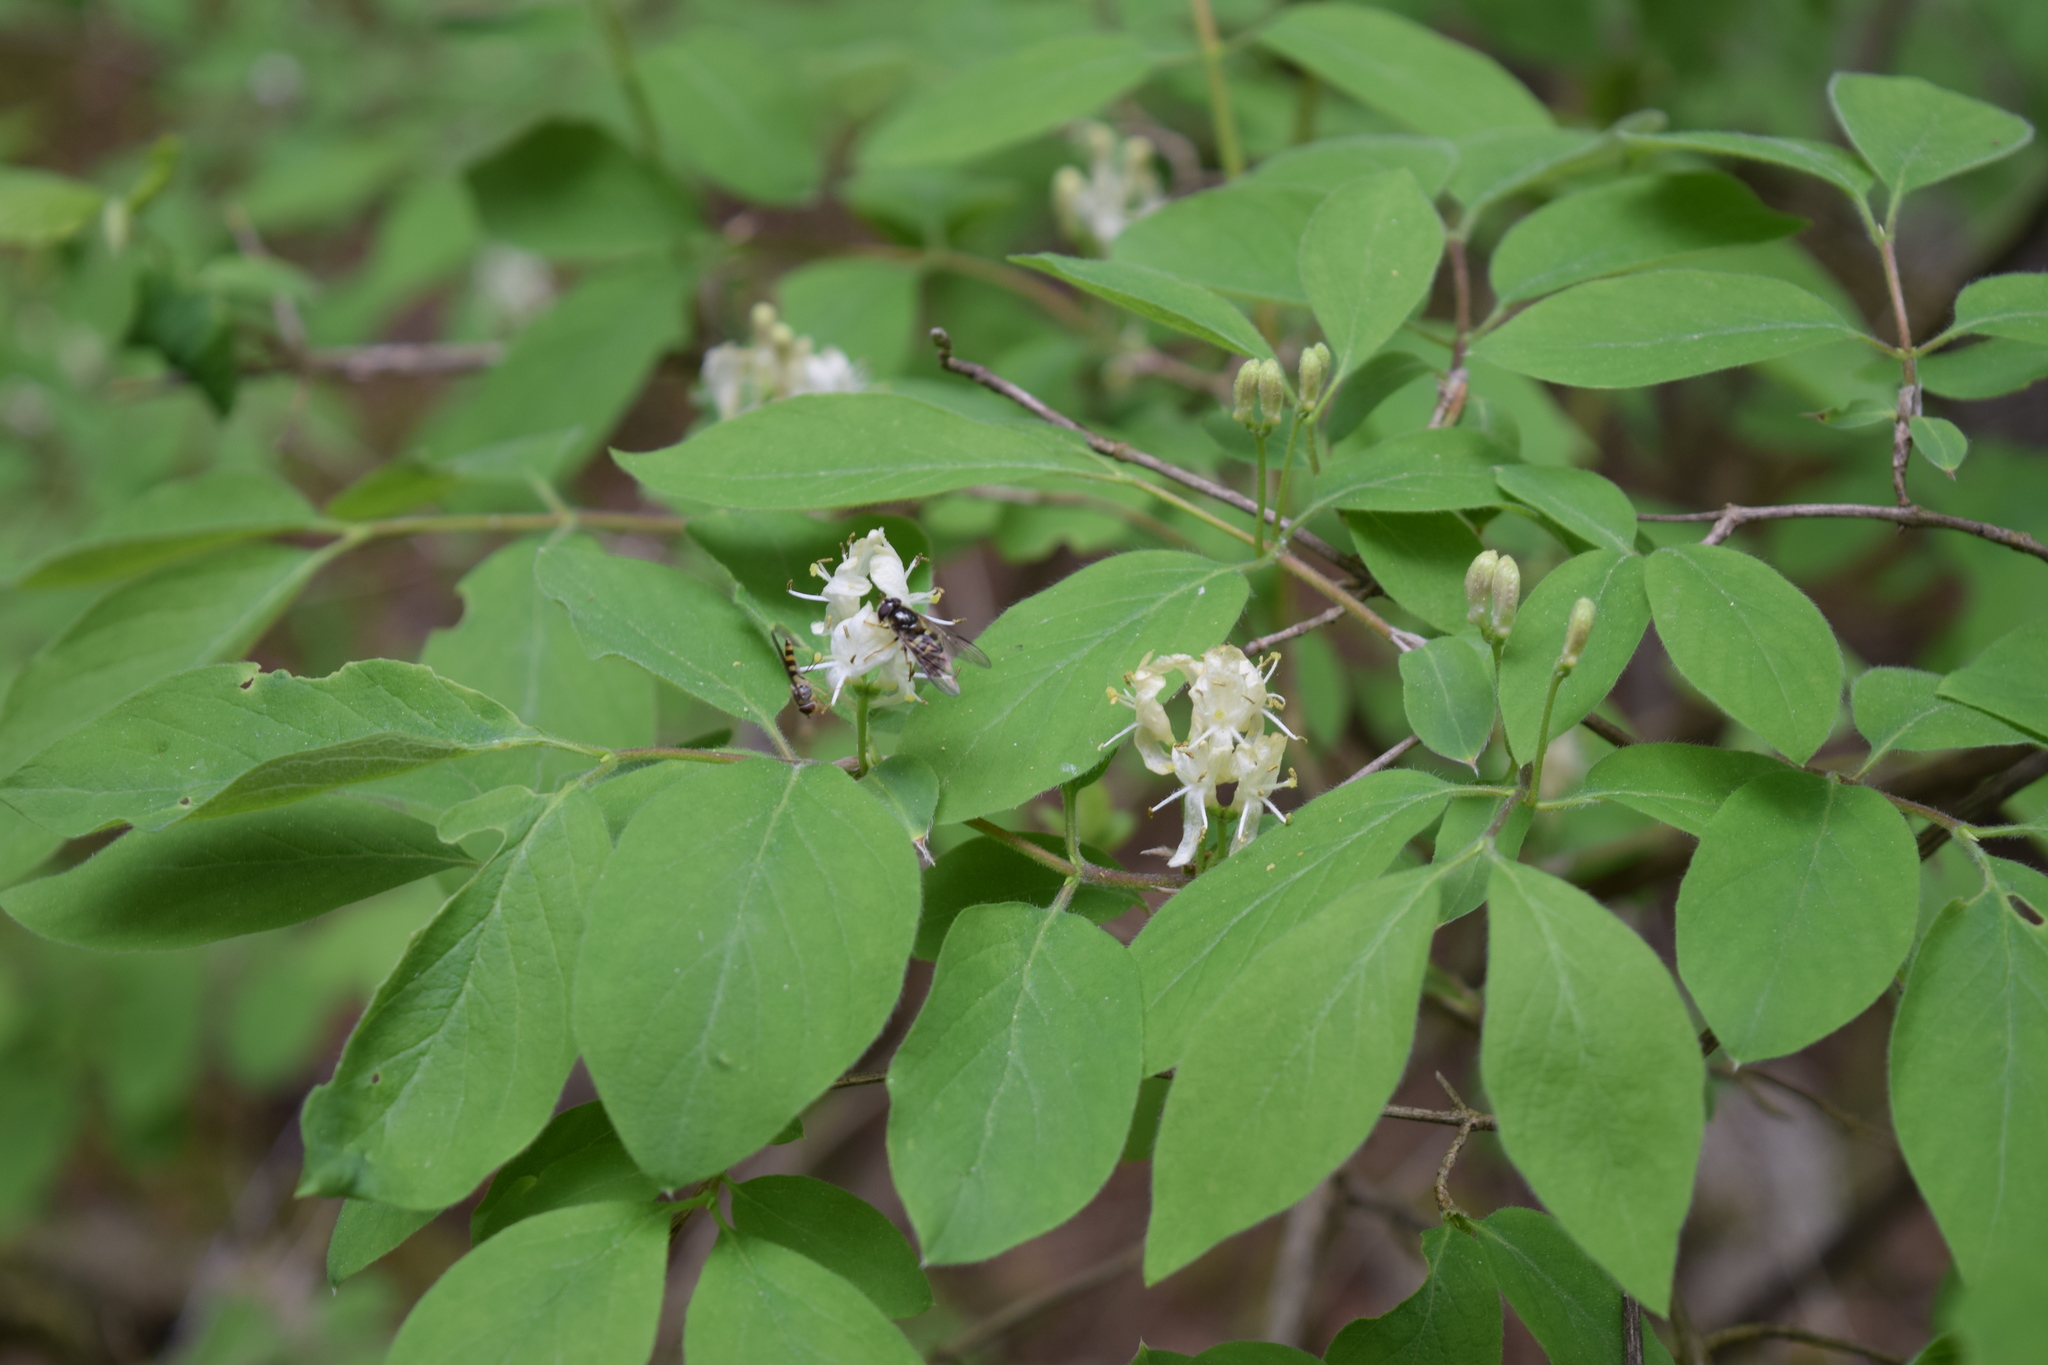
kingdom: Plantae
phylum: Tracheophyta
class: Magnoliopsida
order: Dipsacales
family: Caprifoliaceae
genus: Lonicera
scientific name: Lonicera xylosteum
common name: Fly honeysuckle
